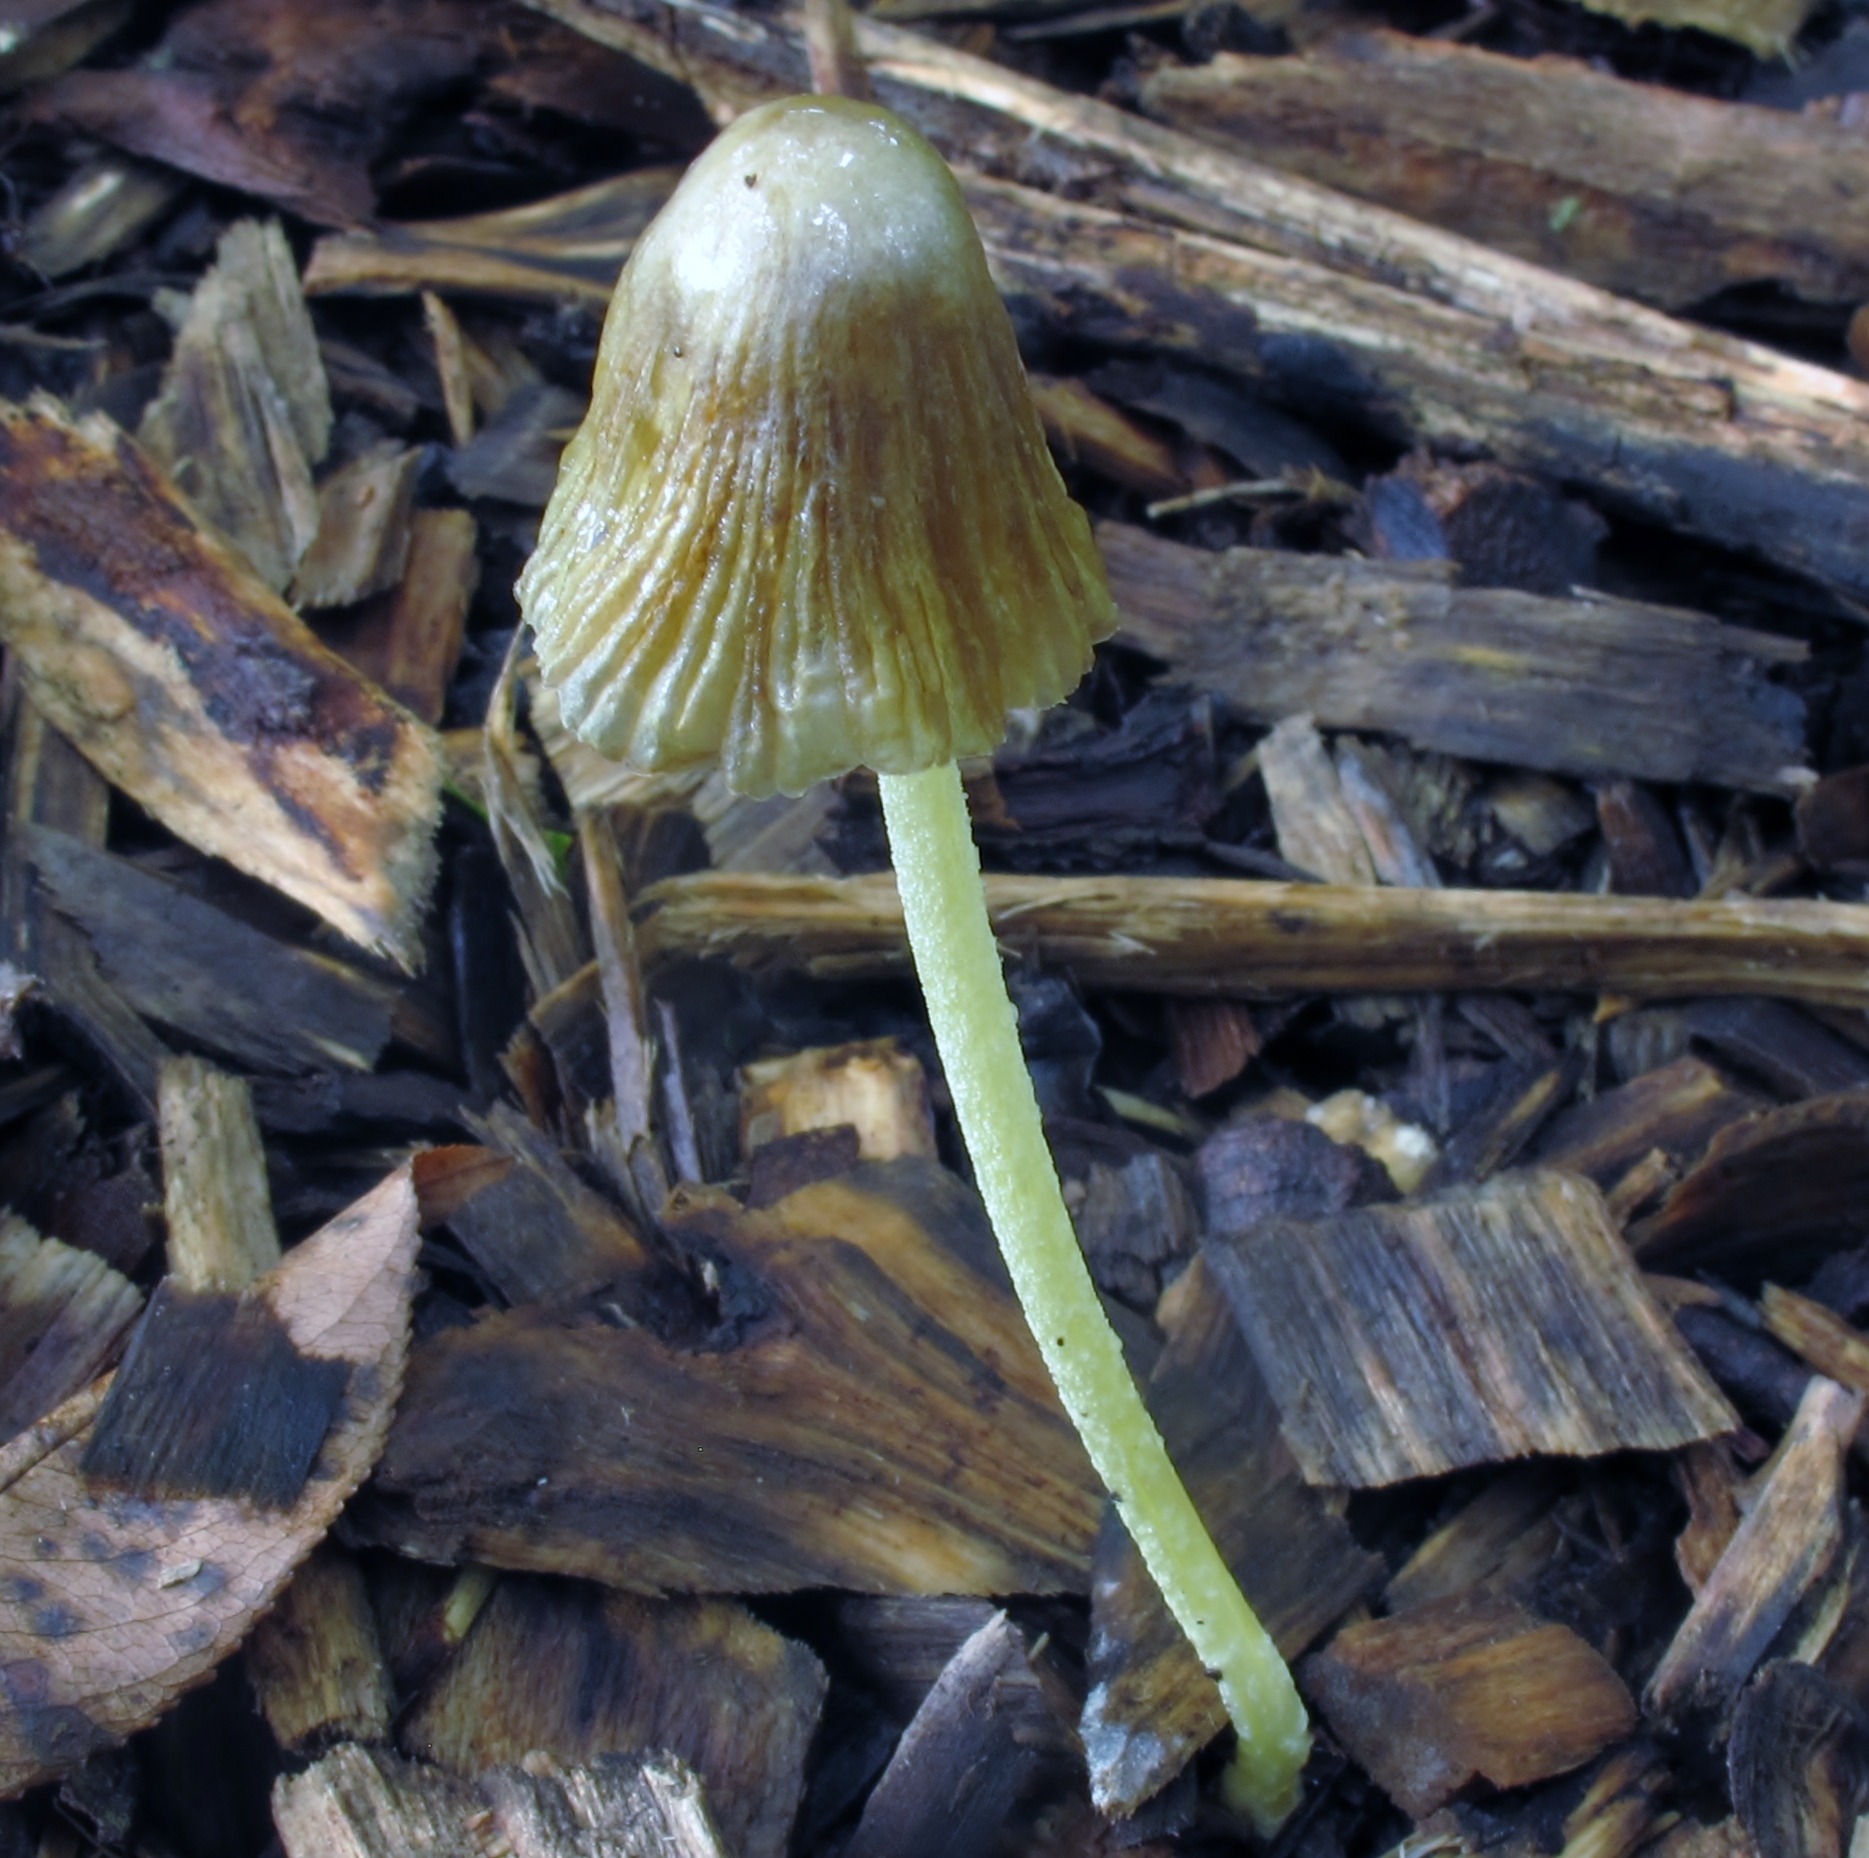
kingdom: Fungi
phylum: Basidiomycota
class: Agaricomycetes
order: Agaricales
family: Bolbitiaceae
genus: Bolbitius
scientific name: Bolbitius titubans
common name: Yellow fieldcap
